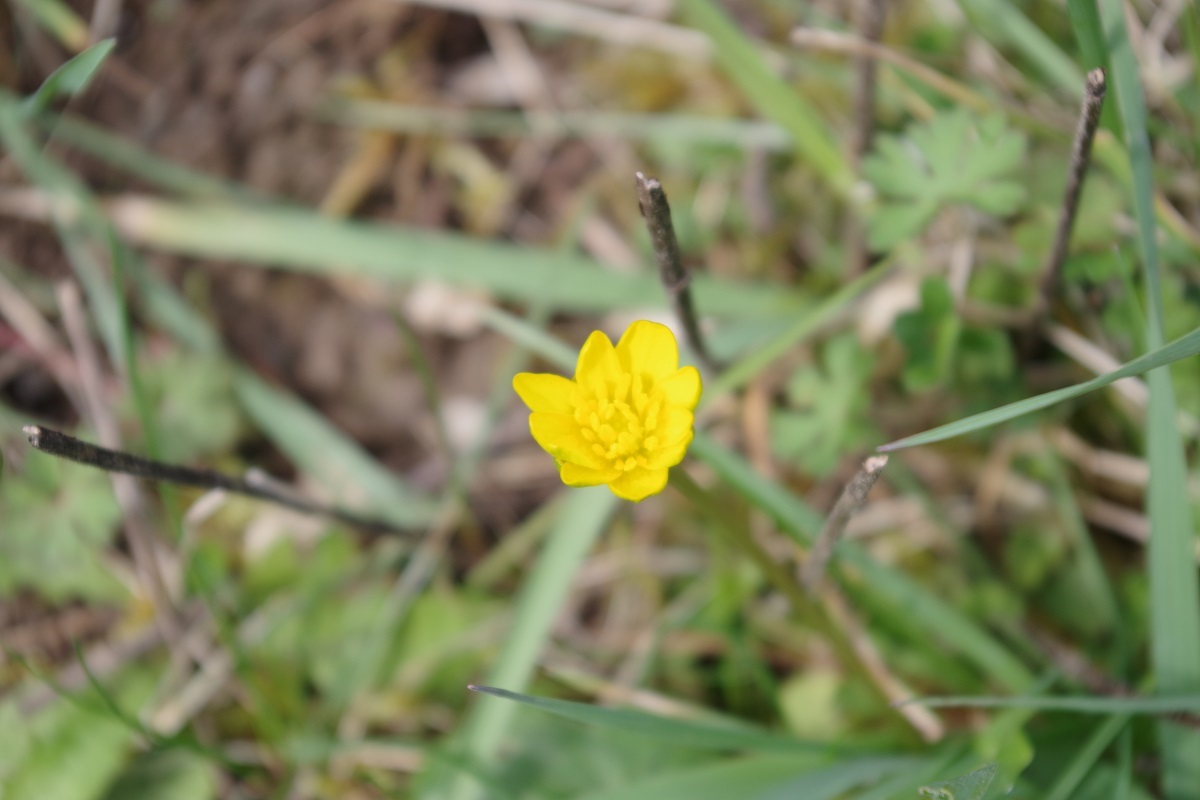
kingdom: Plantae
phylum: Tracheophyta
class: Magnoliopsida
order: Ranunculales
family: Ranunculaceae
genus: Ficaria
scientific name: Ficaria verna
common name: Lesser celandine
